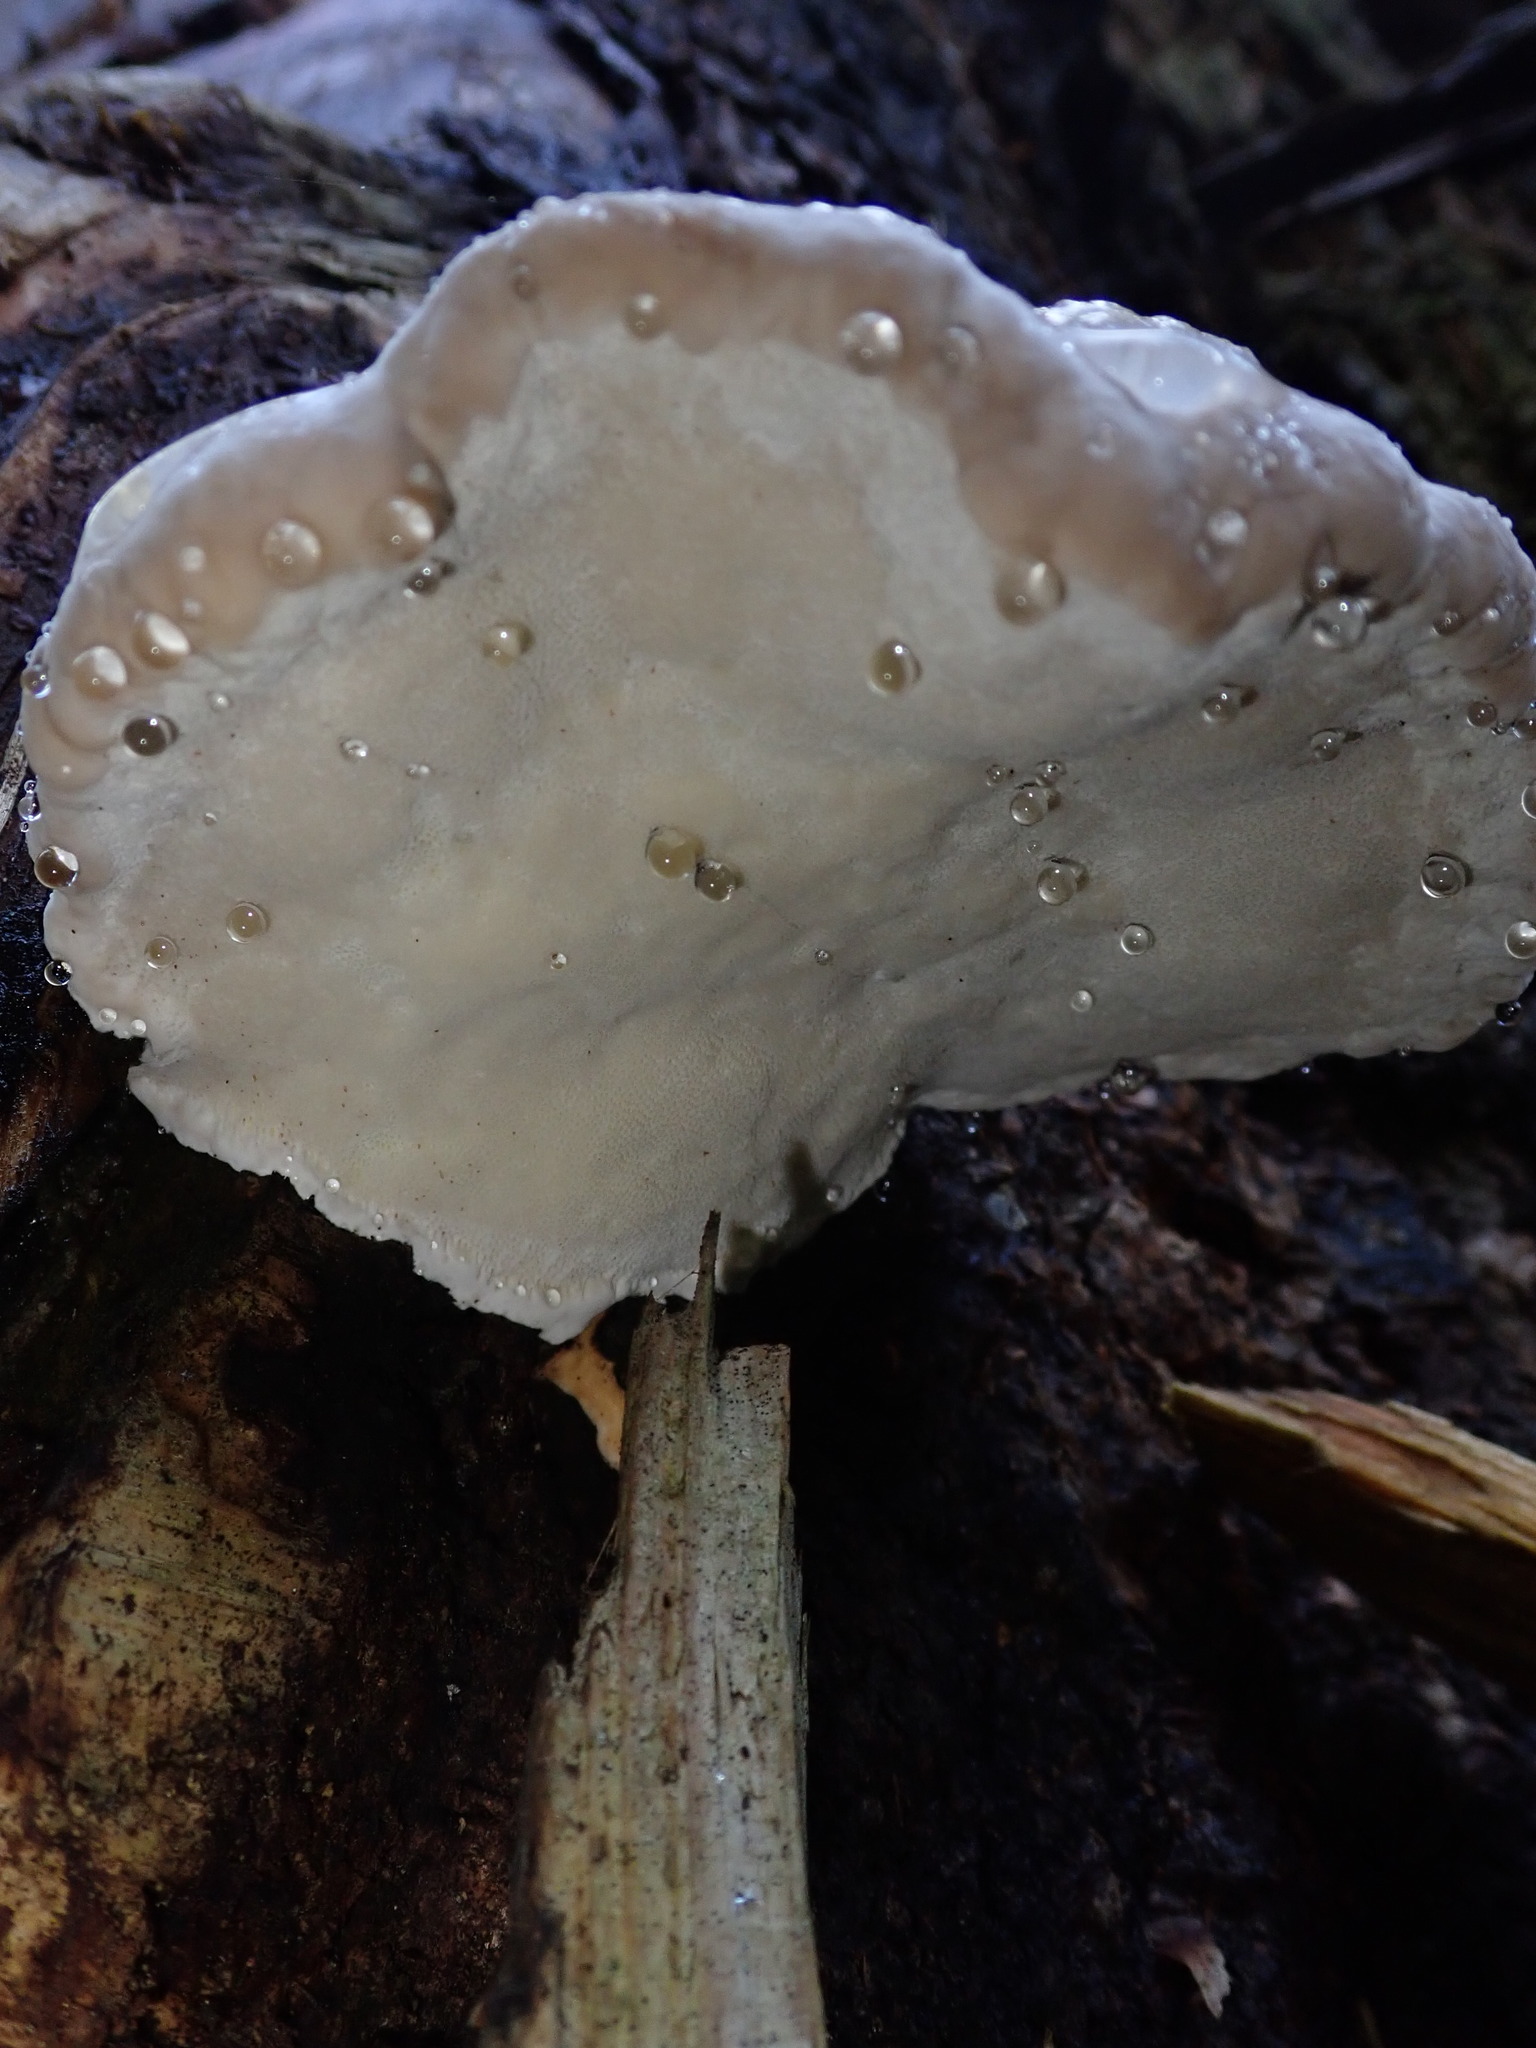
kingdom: Fungi
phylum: Basidiomycota
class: Agaricomycetes
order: Polyporales
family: Fomitopsidaceae
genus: Fomitopsis
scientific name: Fomitopsis pinicola
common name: Red-belted bracket
